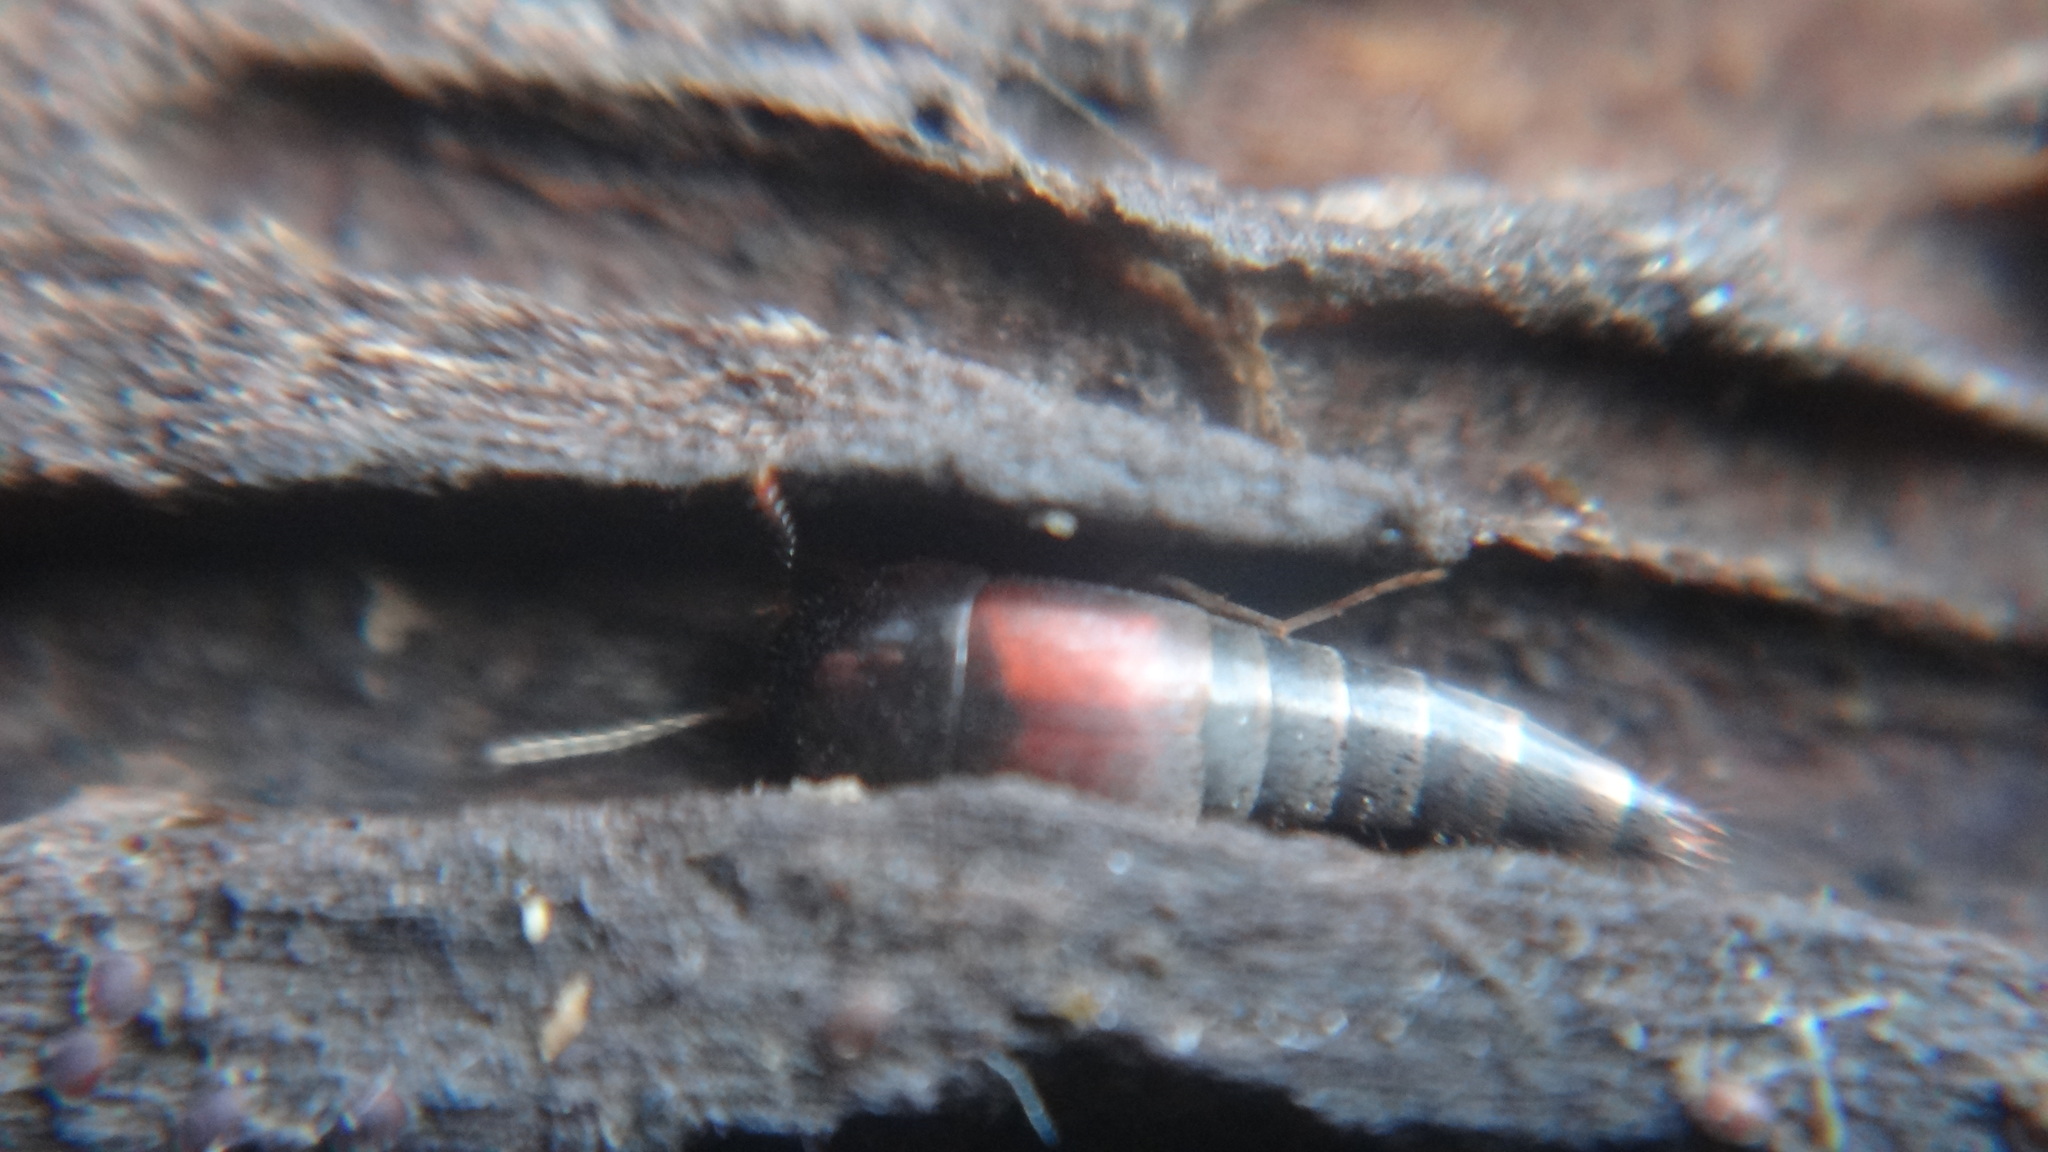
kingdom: Animalia
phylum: Arthropoda
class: Insecta
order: Coleoptera
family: Staphylinidae
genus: Sepedophilus
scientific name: Sepedophilus marshami
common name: Staph beetle
